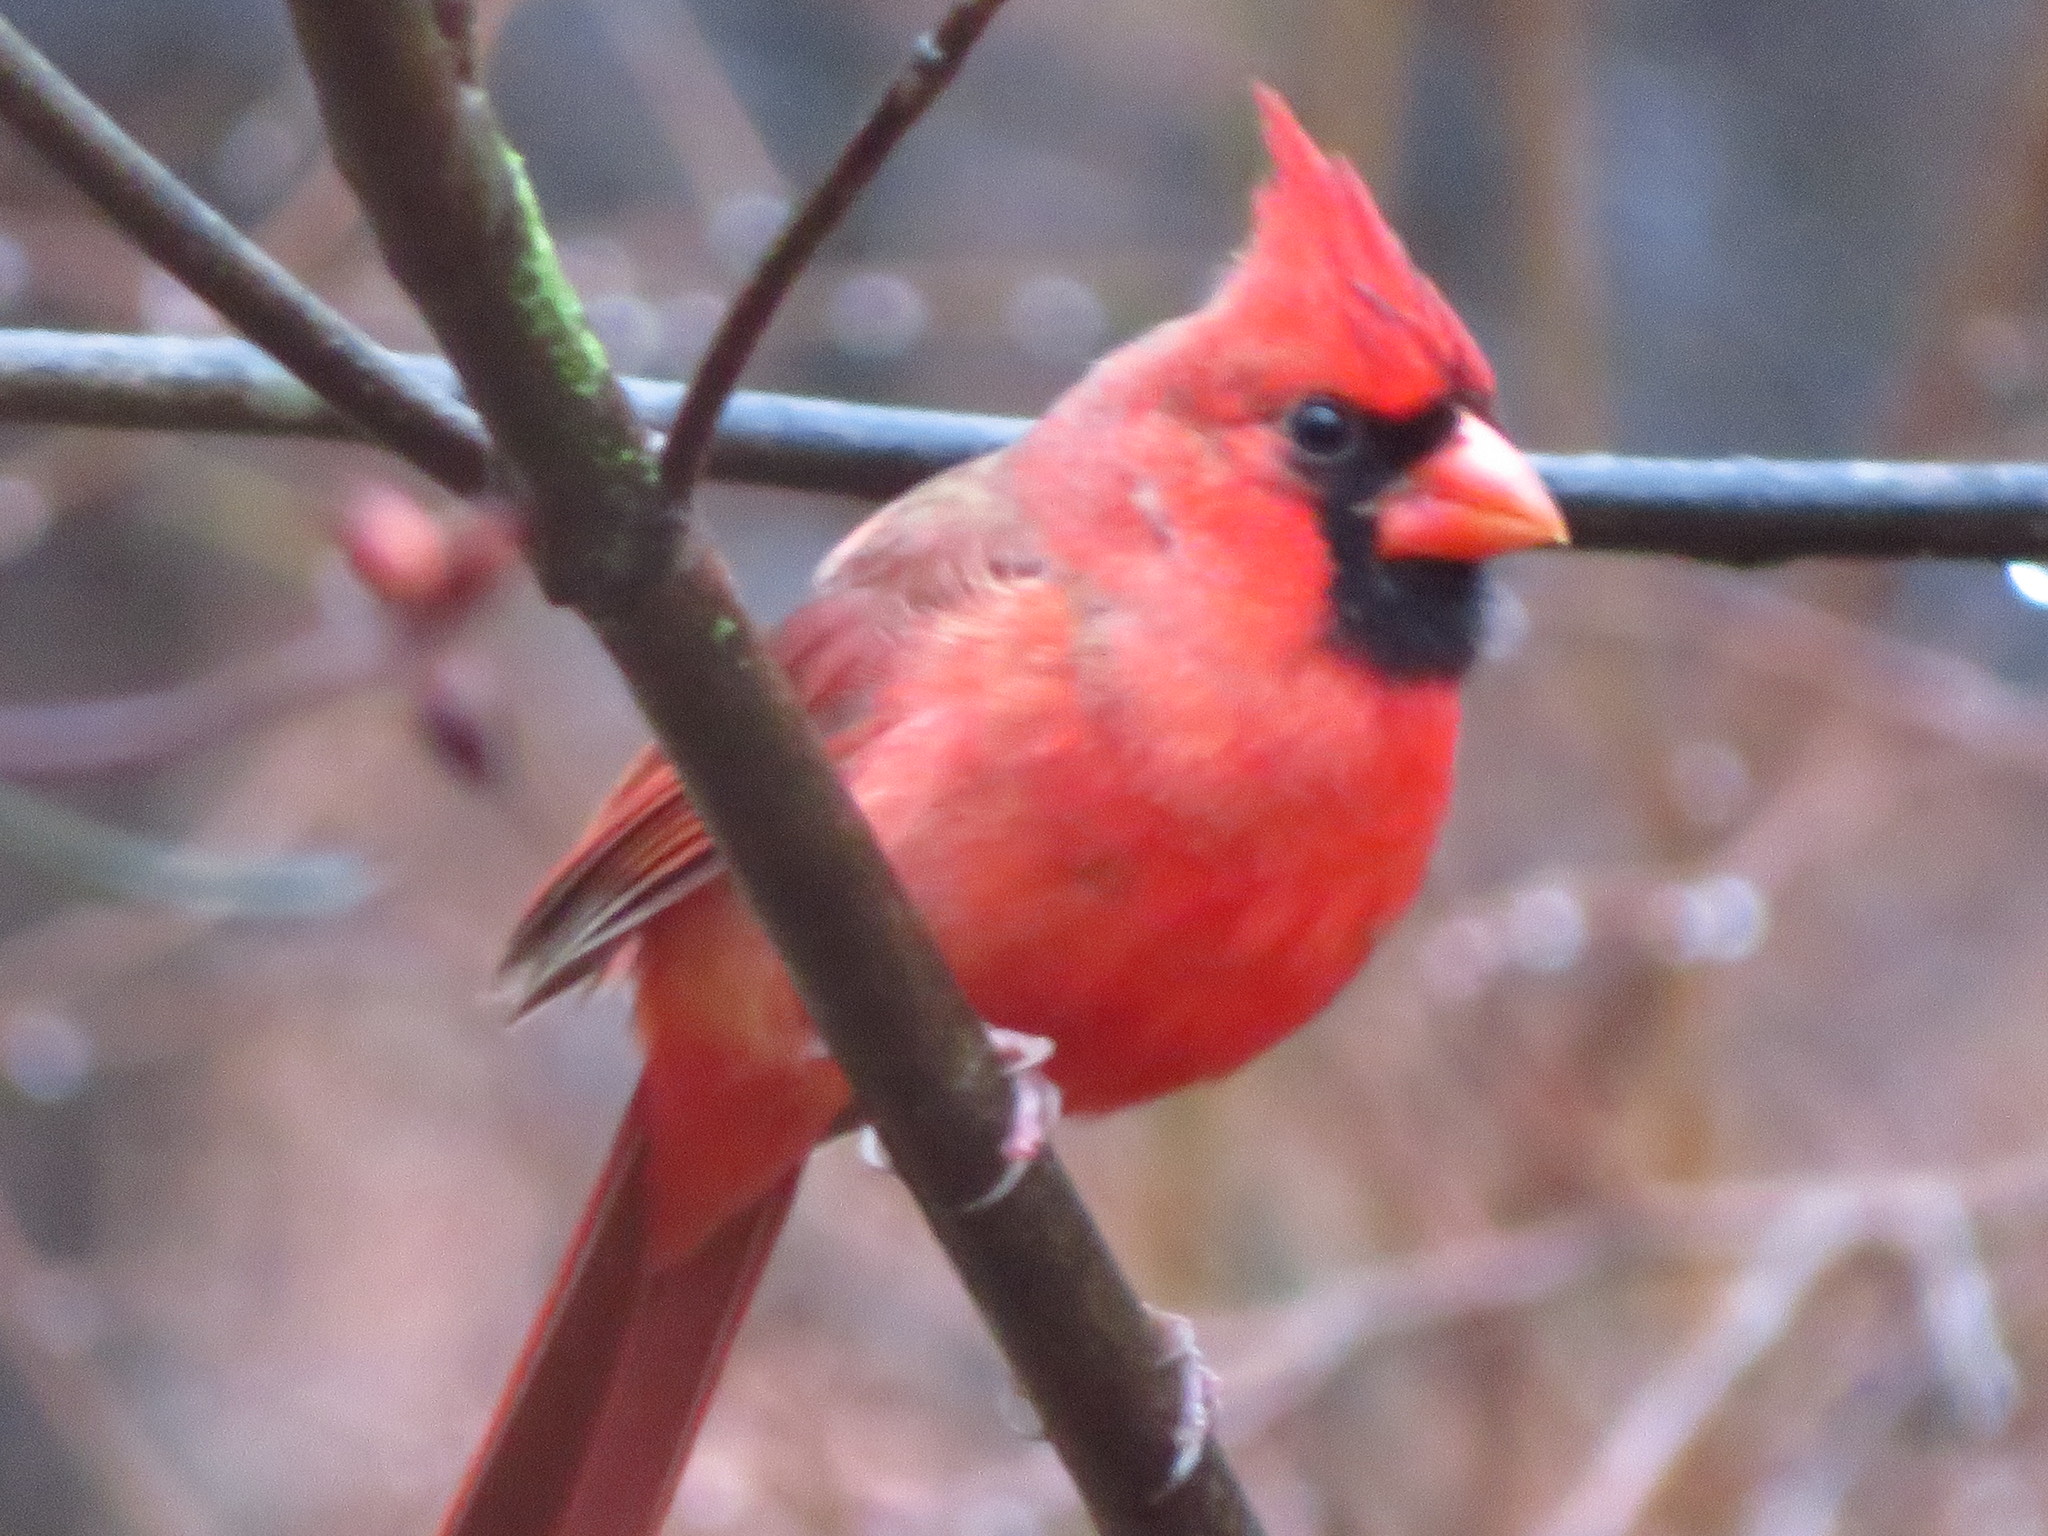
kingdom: Animalia
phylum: Chordata
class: Aves
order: Passeriformes
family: Cardinalidae
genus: Cardinalis
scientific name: Cardinalis cardinalis
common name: Northern cardinal
